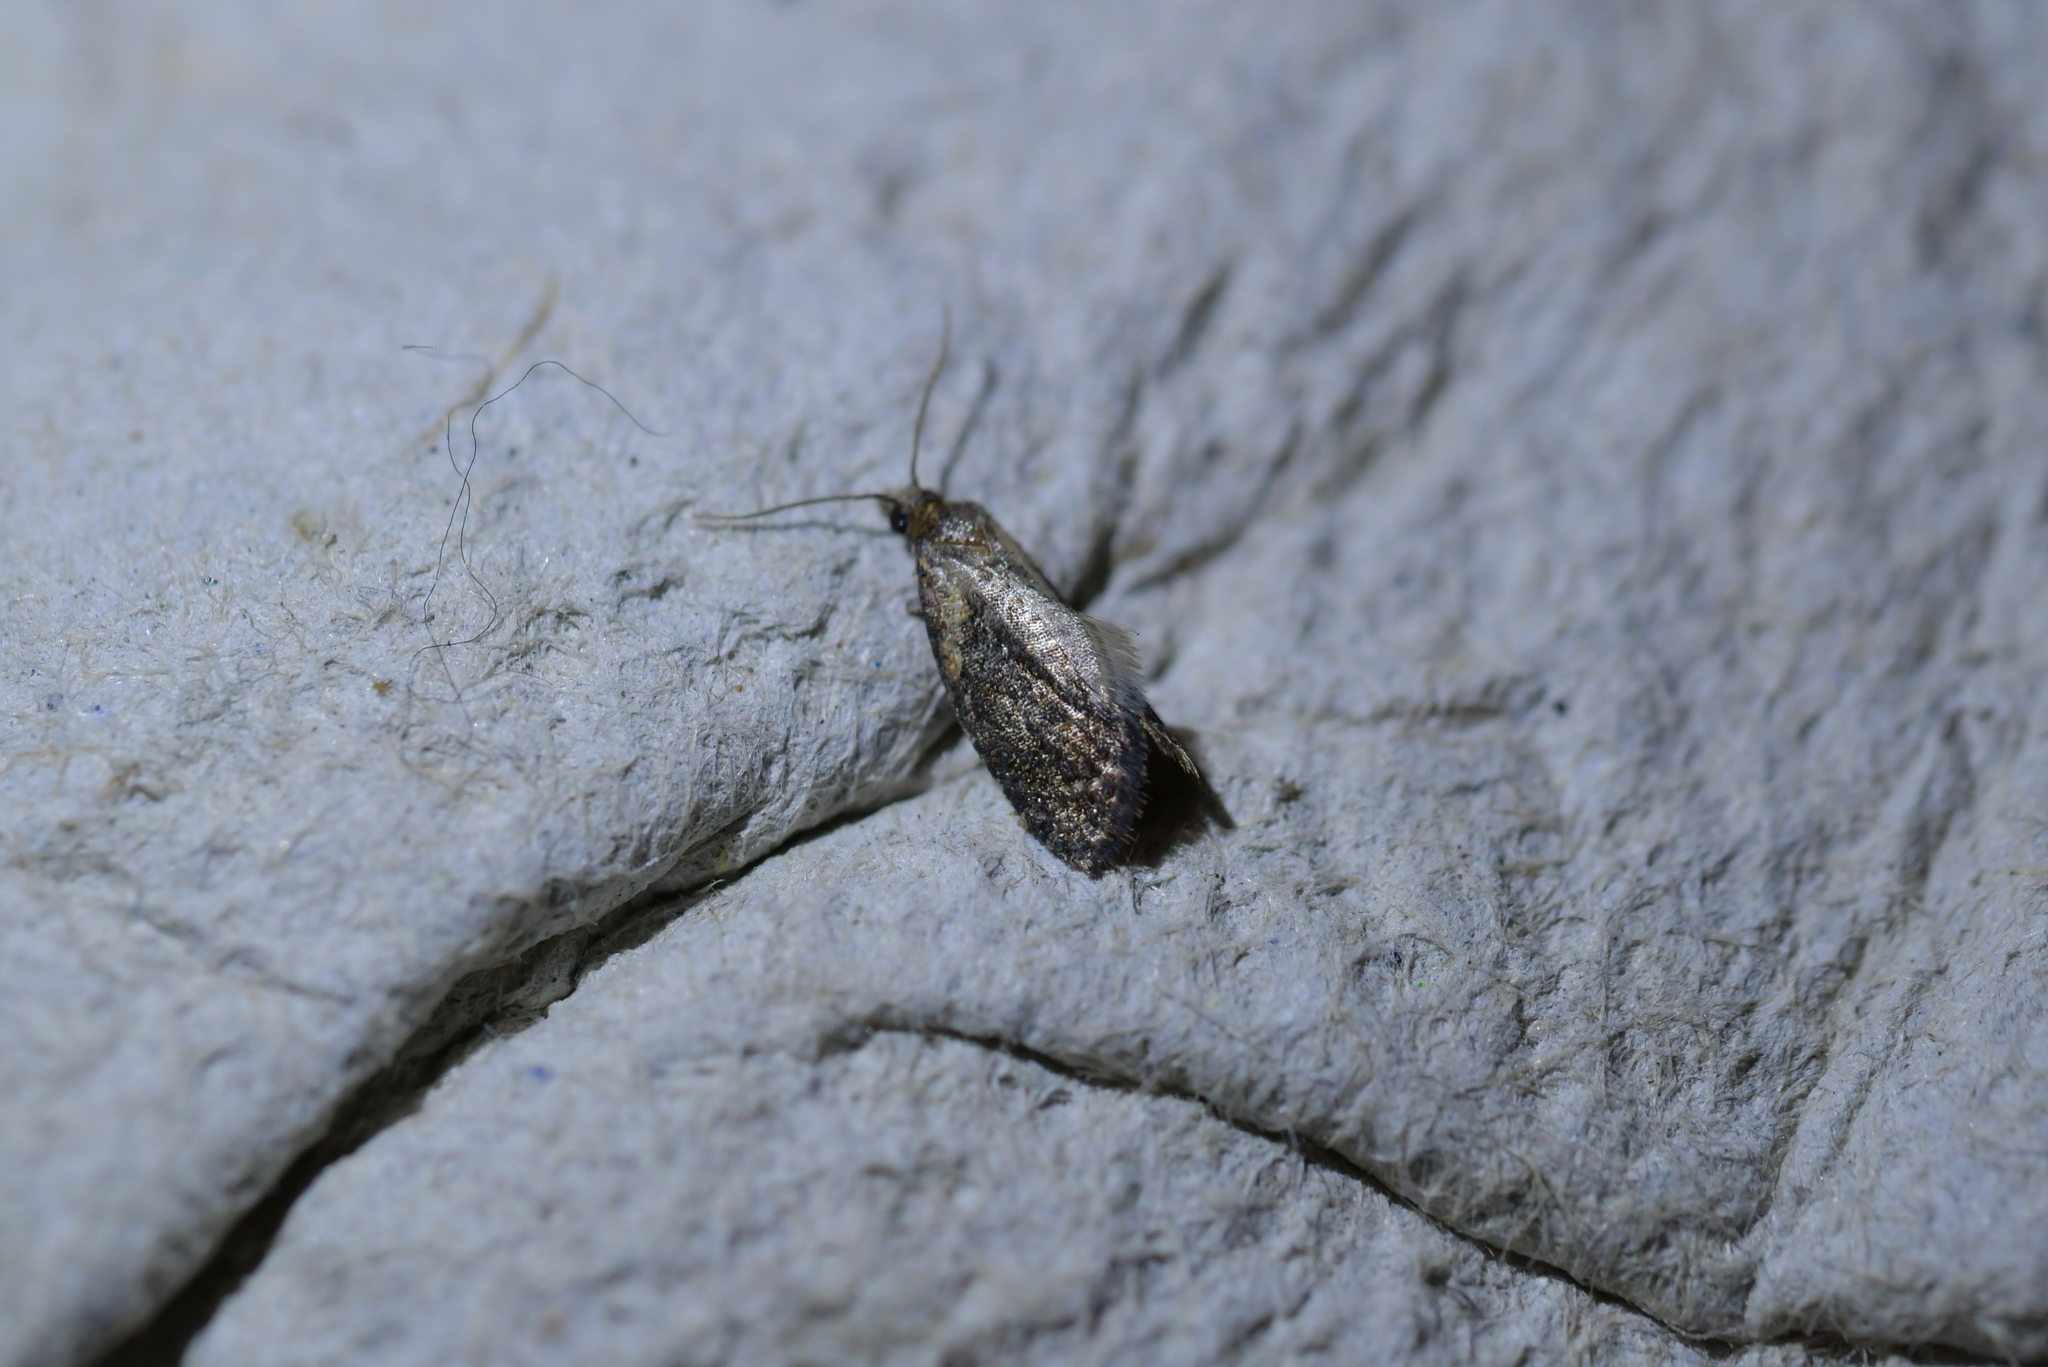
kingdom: Animalia
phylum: Arthropoda
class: Insecta
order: Lepidoptera
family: Tortricidae
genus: Capua
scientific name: Capua intractana
